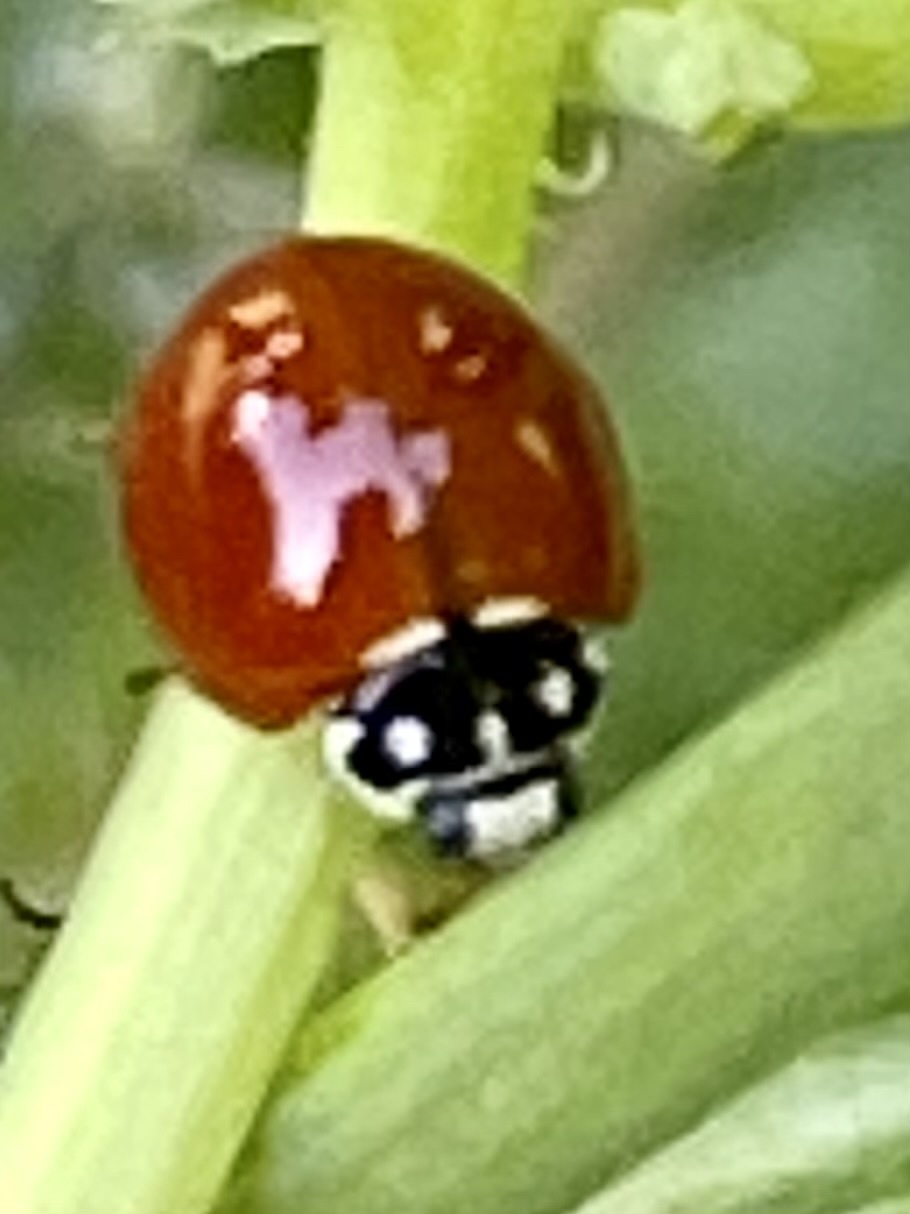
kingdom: Animalia
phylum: Arthropoda
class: Insecta
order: Coleoptera
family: Coccinellidae
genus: Cycloneda
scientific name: Cycloneda sanguinea
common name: Ladybird beetle
